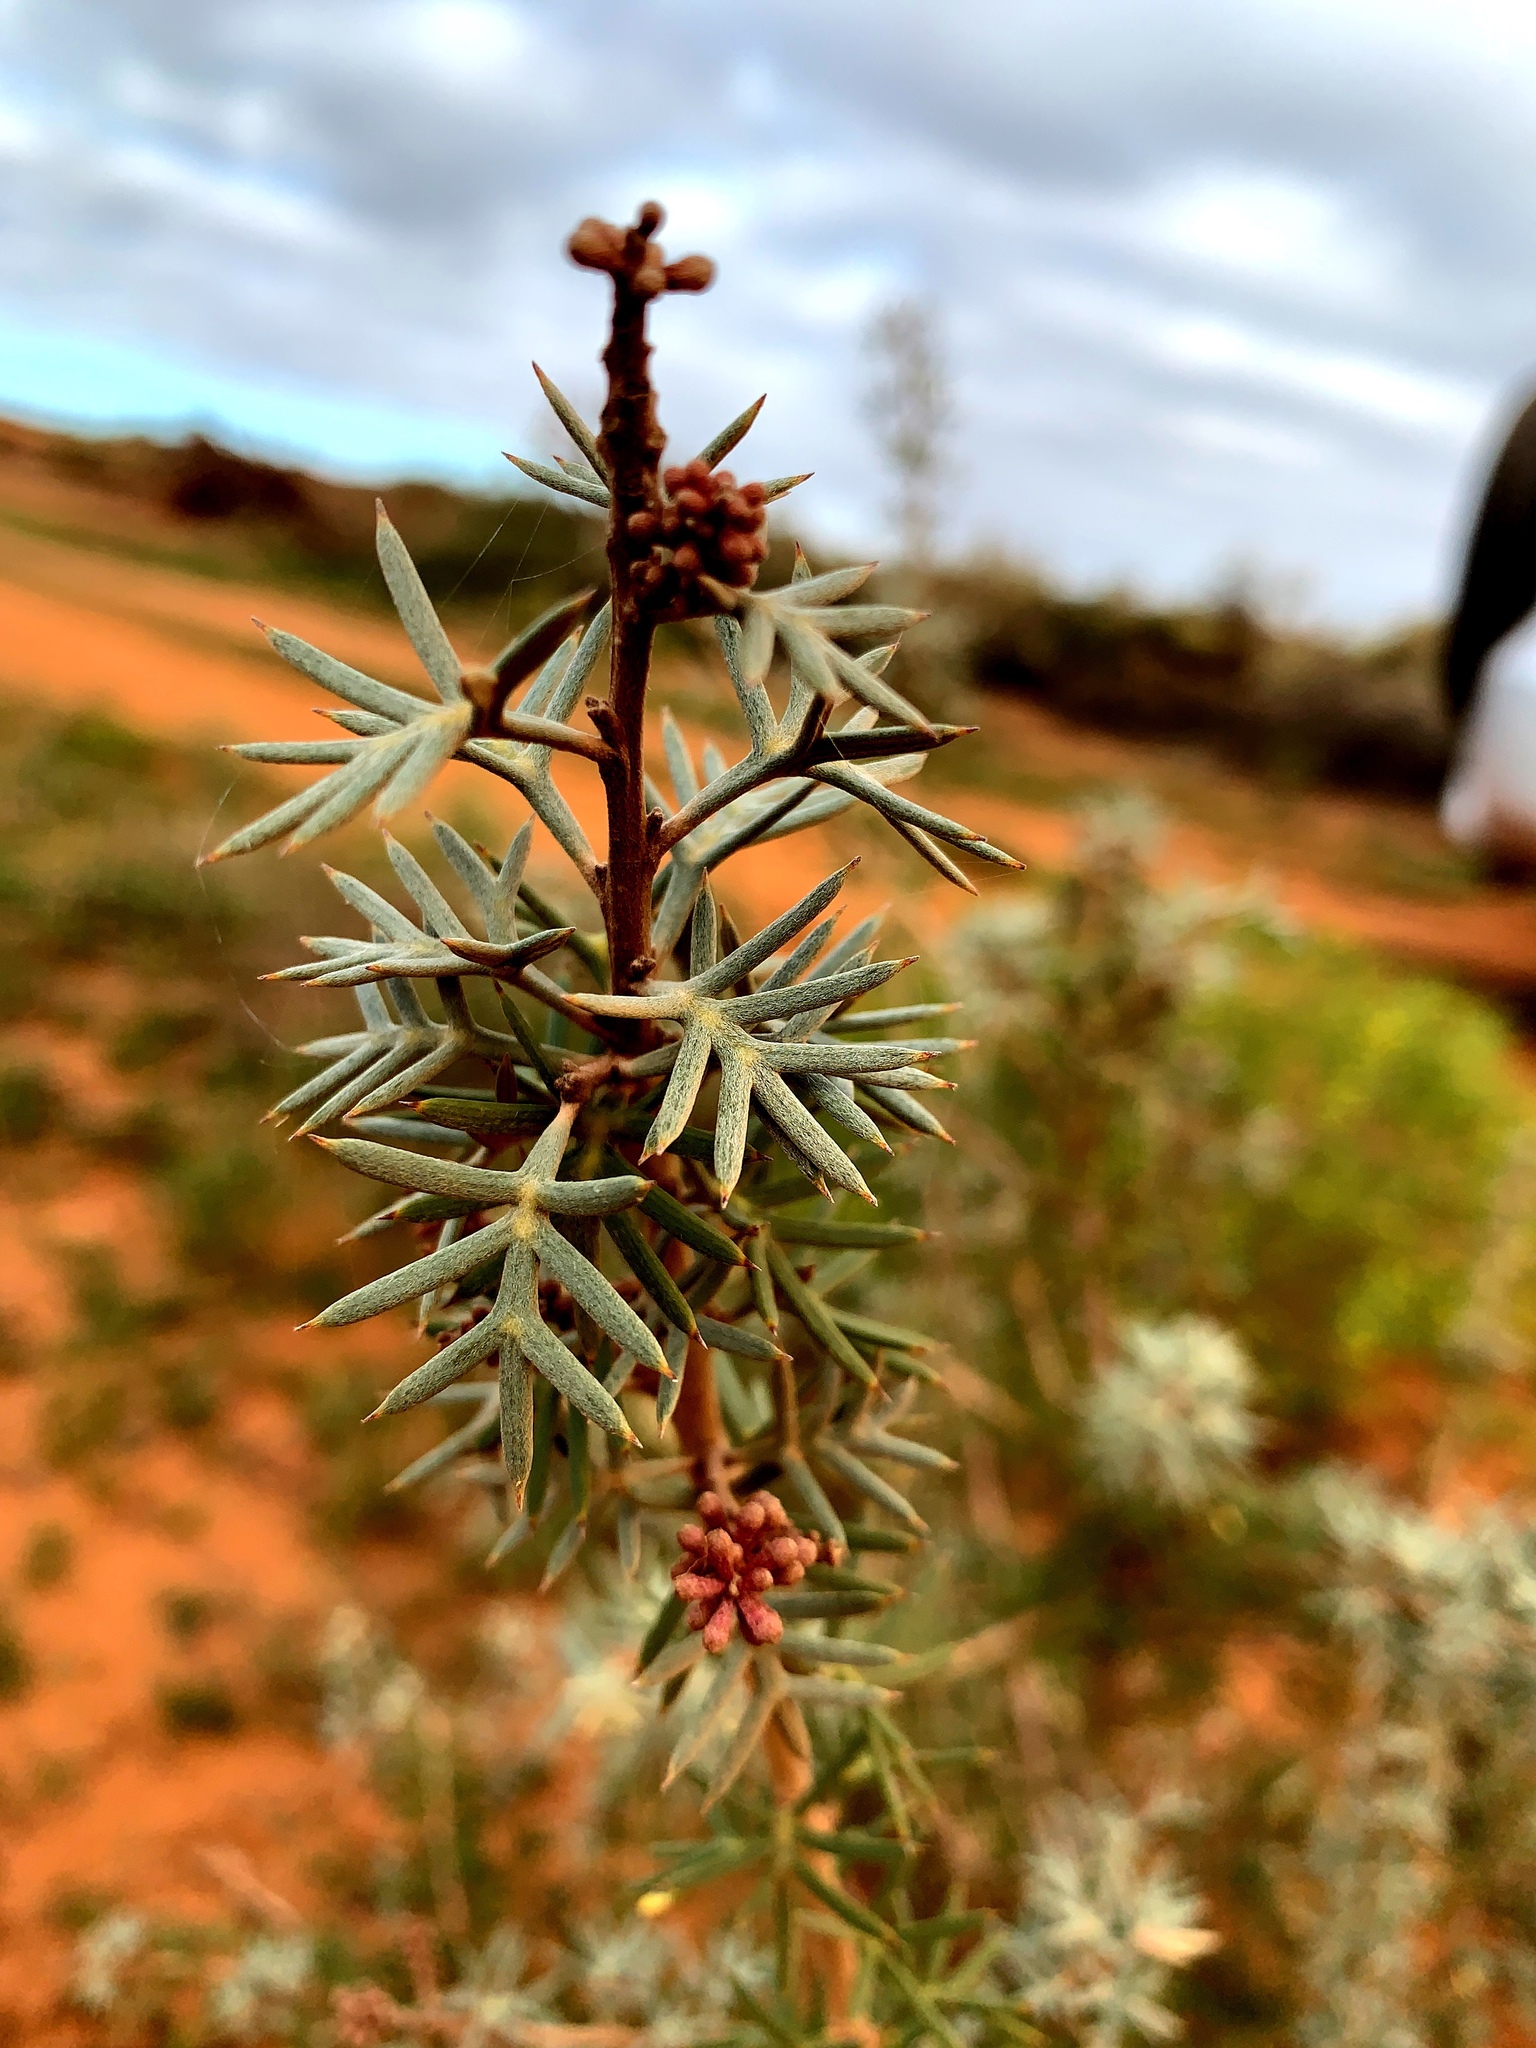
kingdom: Plantae
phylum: Tracheophyta
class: Magnoliopsida
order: Proteales
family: Proteaceae
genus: Grevillea
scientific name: Grevillea huegelii
